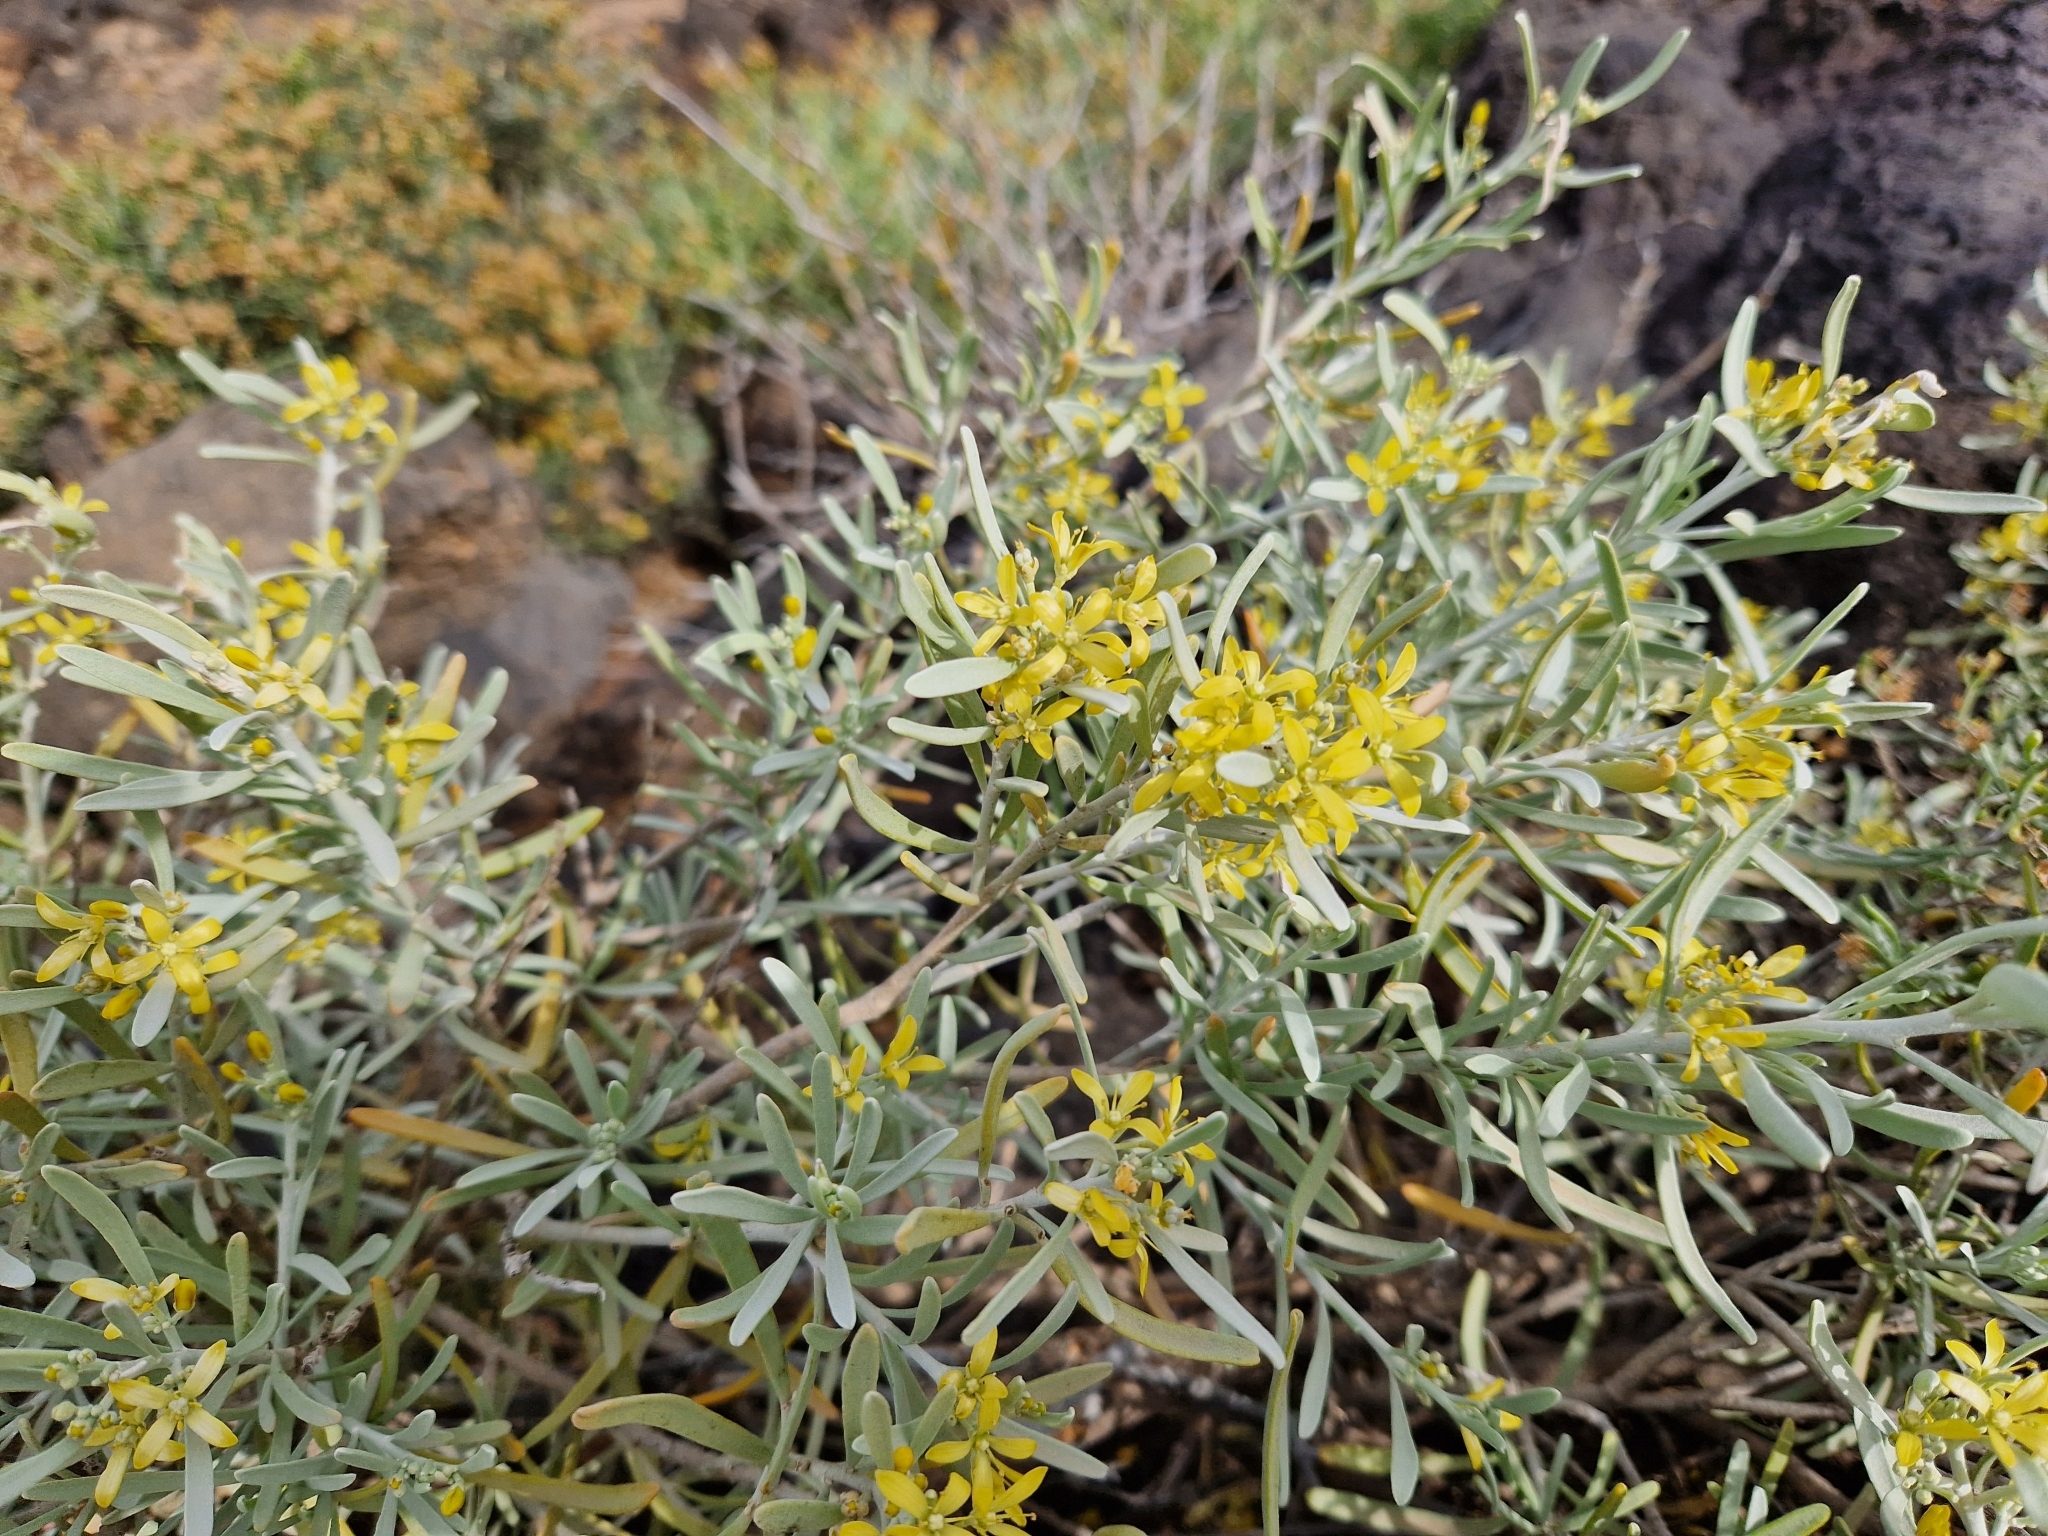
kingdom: Plantae
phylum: Tracheophyta
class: Magnoliopsida
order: Sapindales
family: Rutaceae
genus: Cneorum
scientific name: Cneorum pulverulentum
